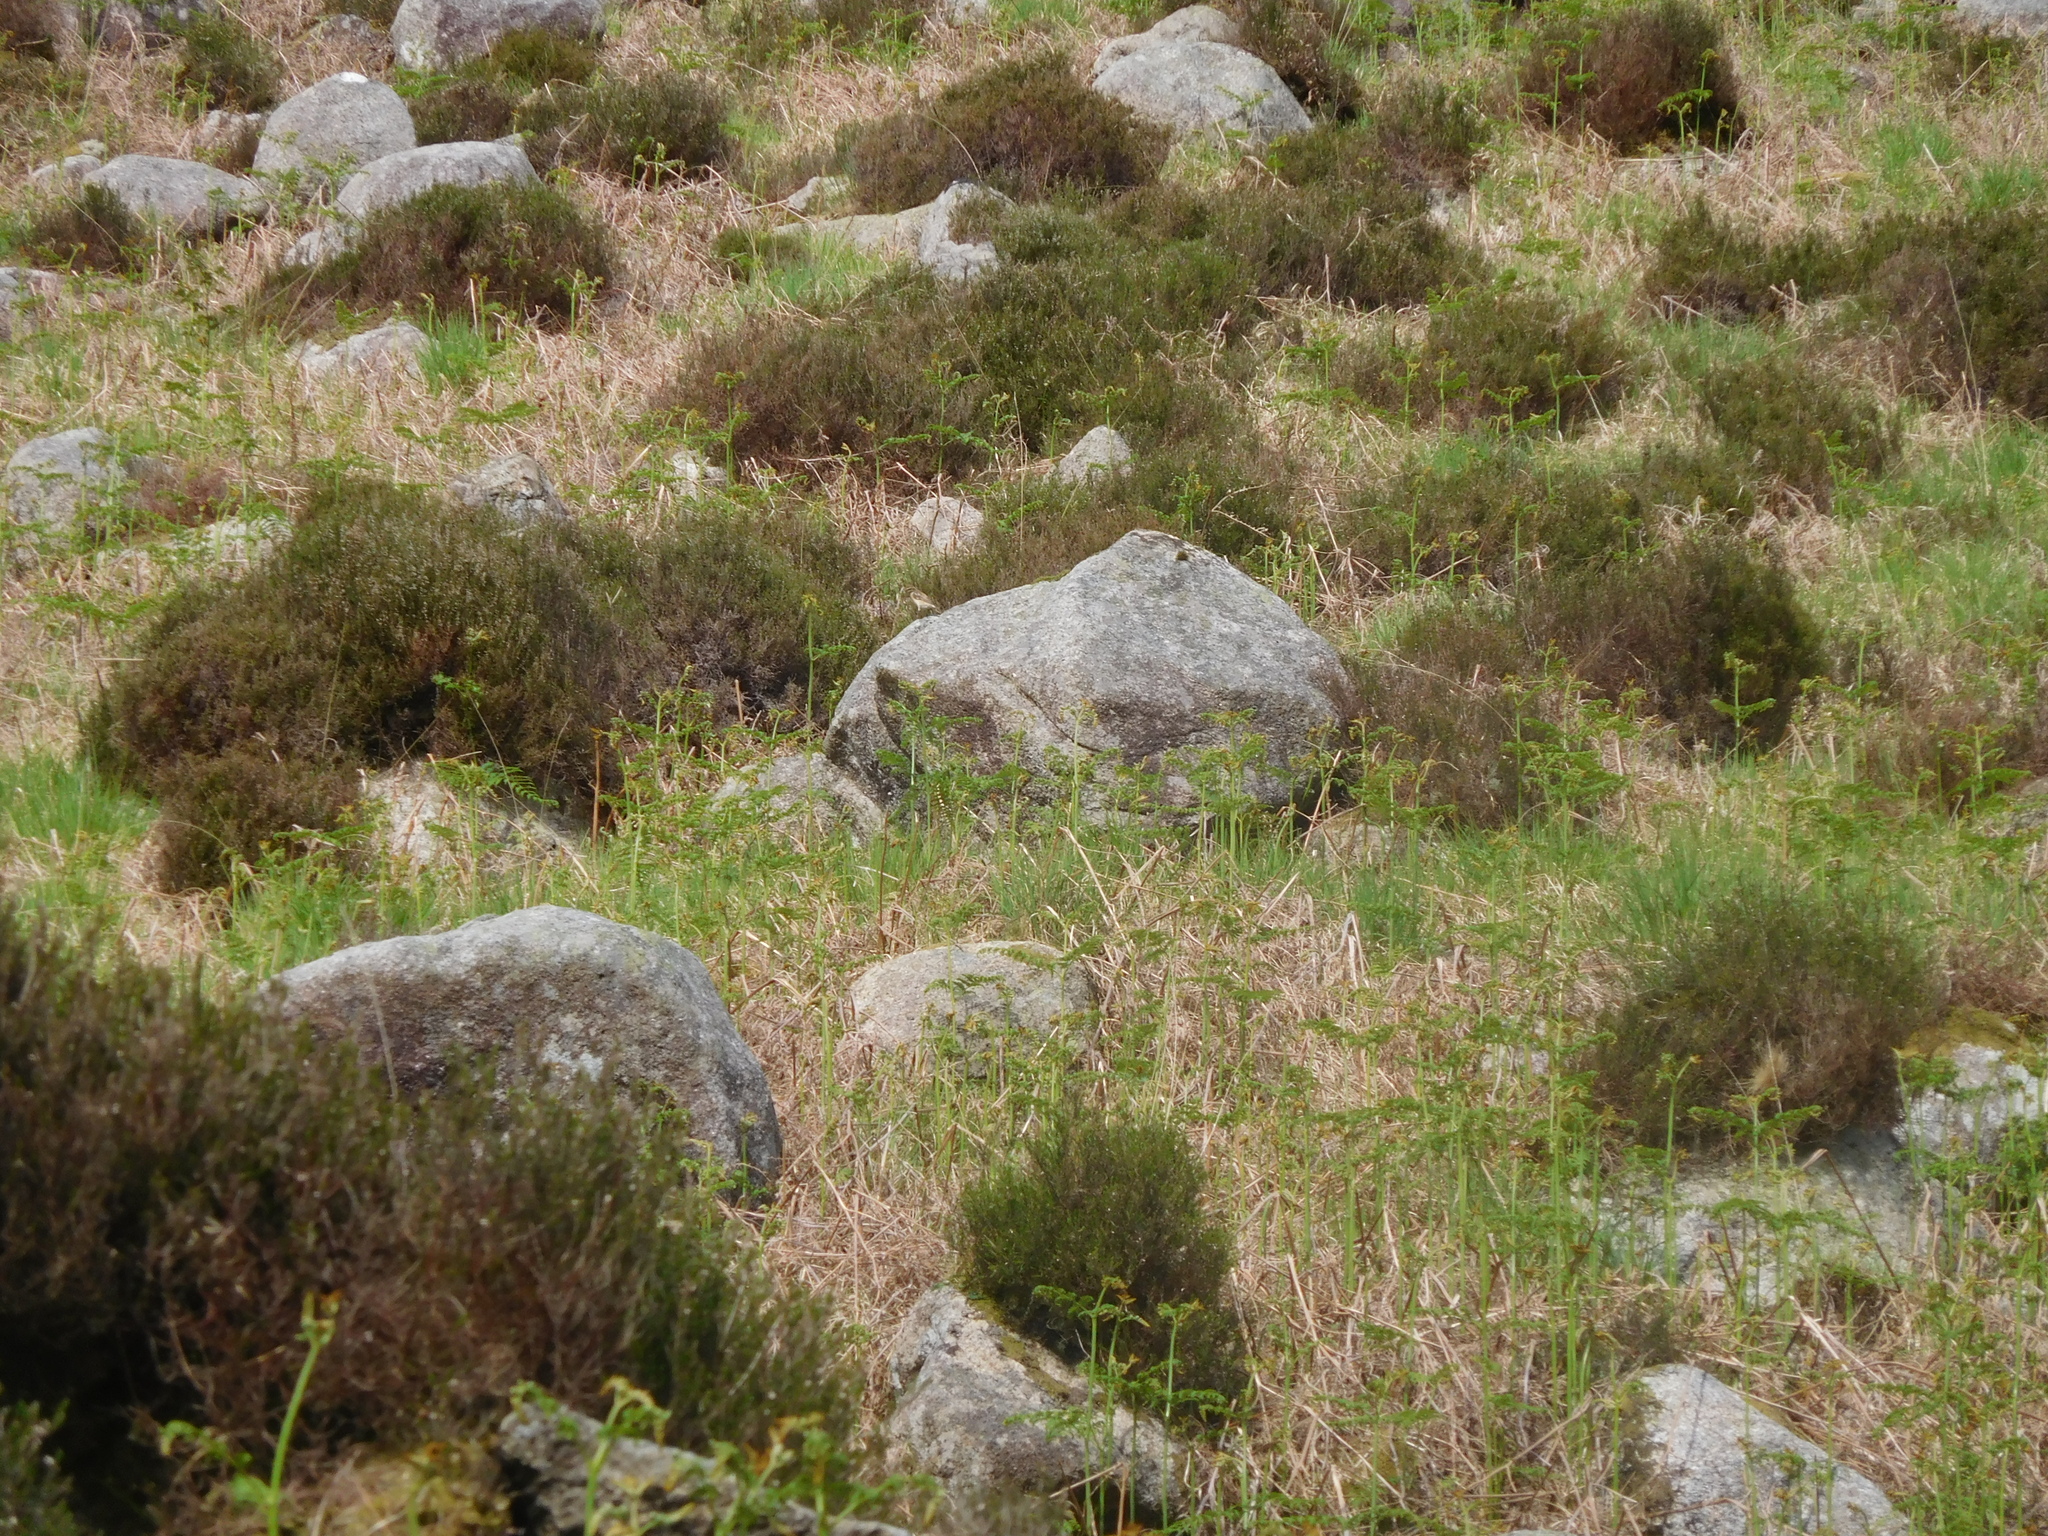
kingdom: Animalia
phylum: Chordata
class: Aves
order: Passeriformes
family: Muscicapidae
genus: Saxicola
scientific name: Saxicola rubetra
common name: Whinchat
